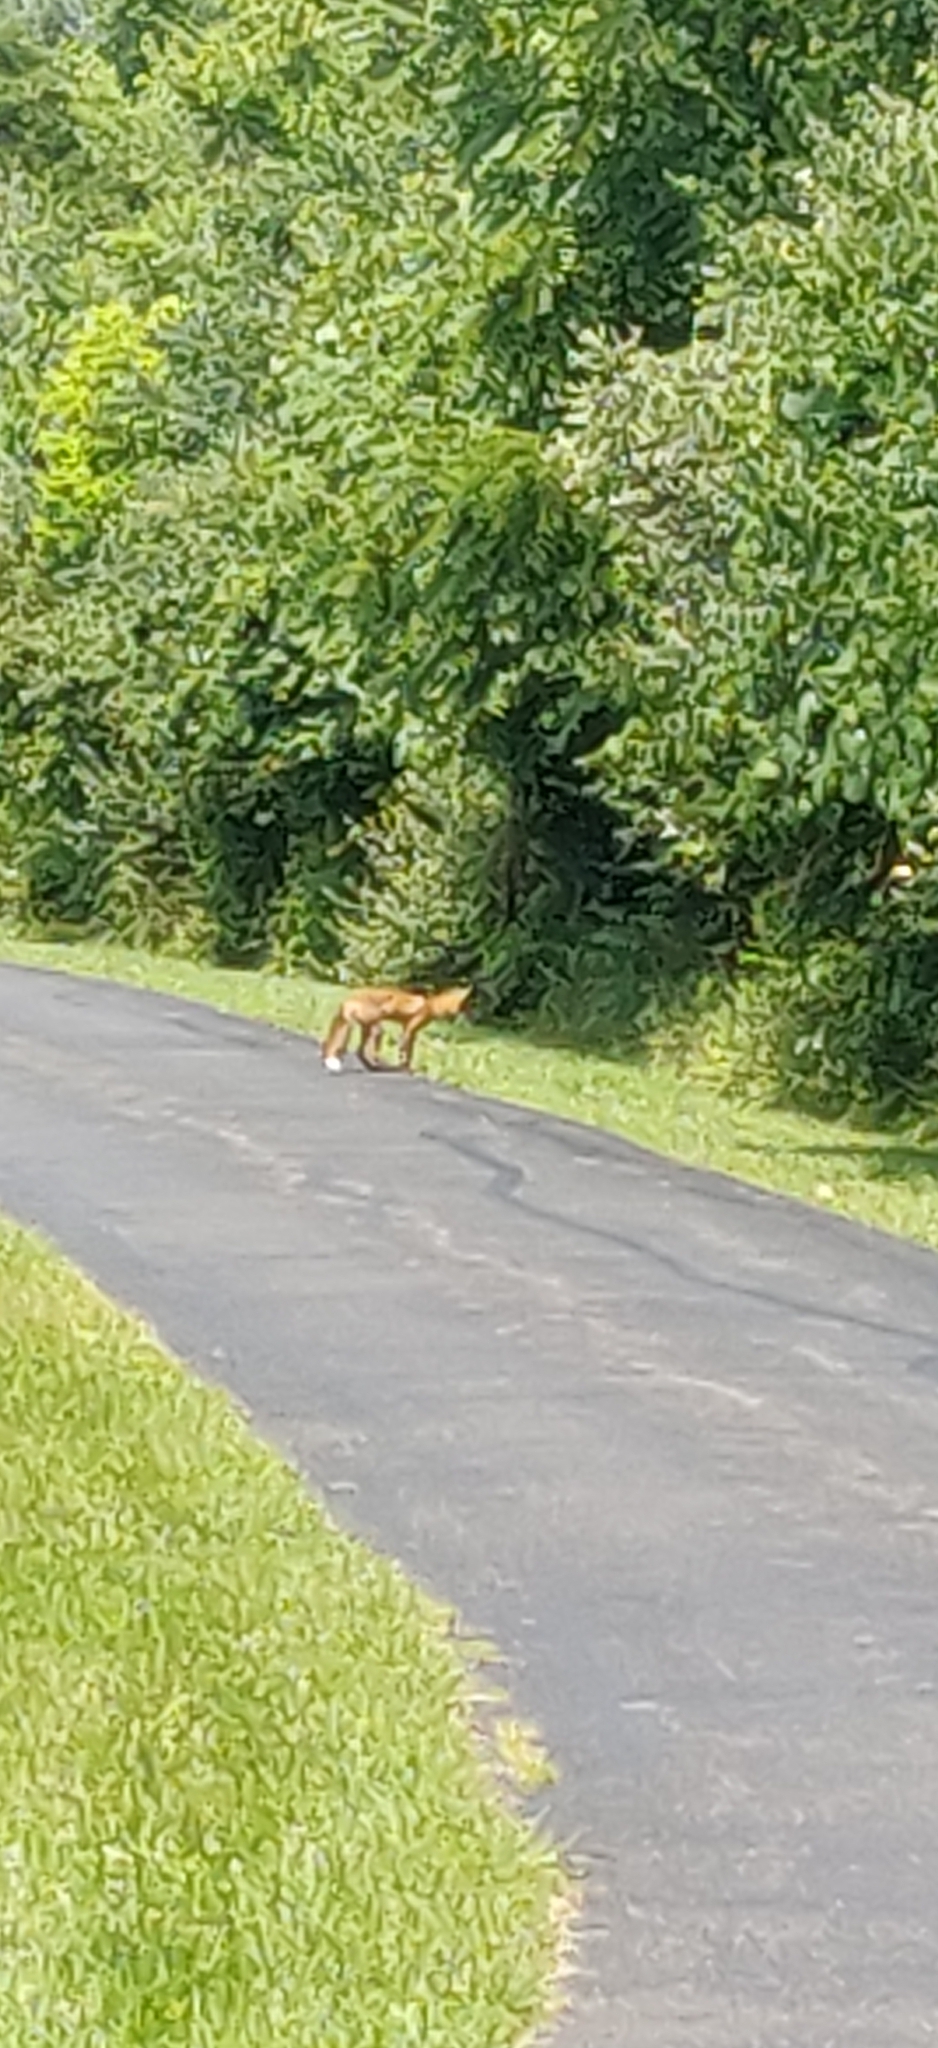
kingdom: Animalia
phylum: Chordata
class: Mammalia
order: Carnivora
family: Canidae
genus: Vulpes
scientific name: Vulpes vulpes
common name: Red fox
